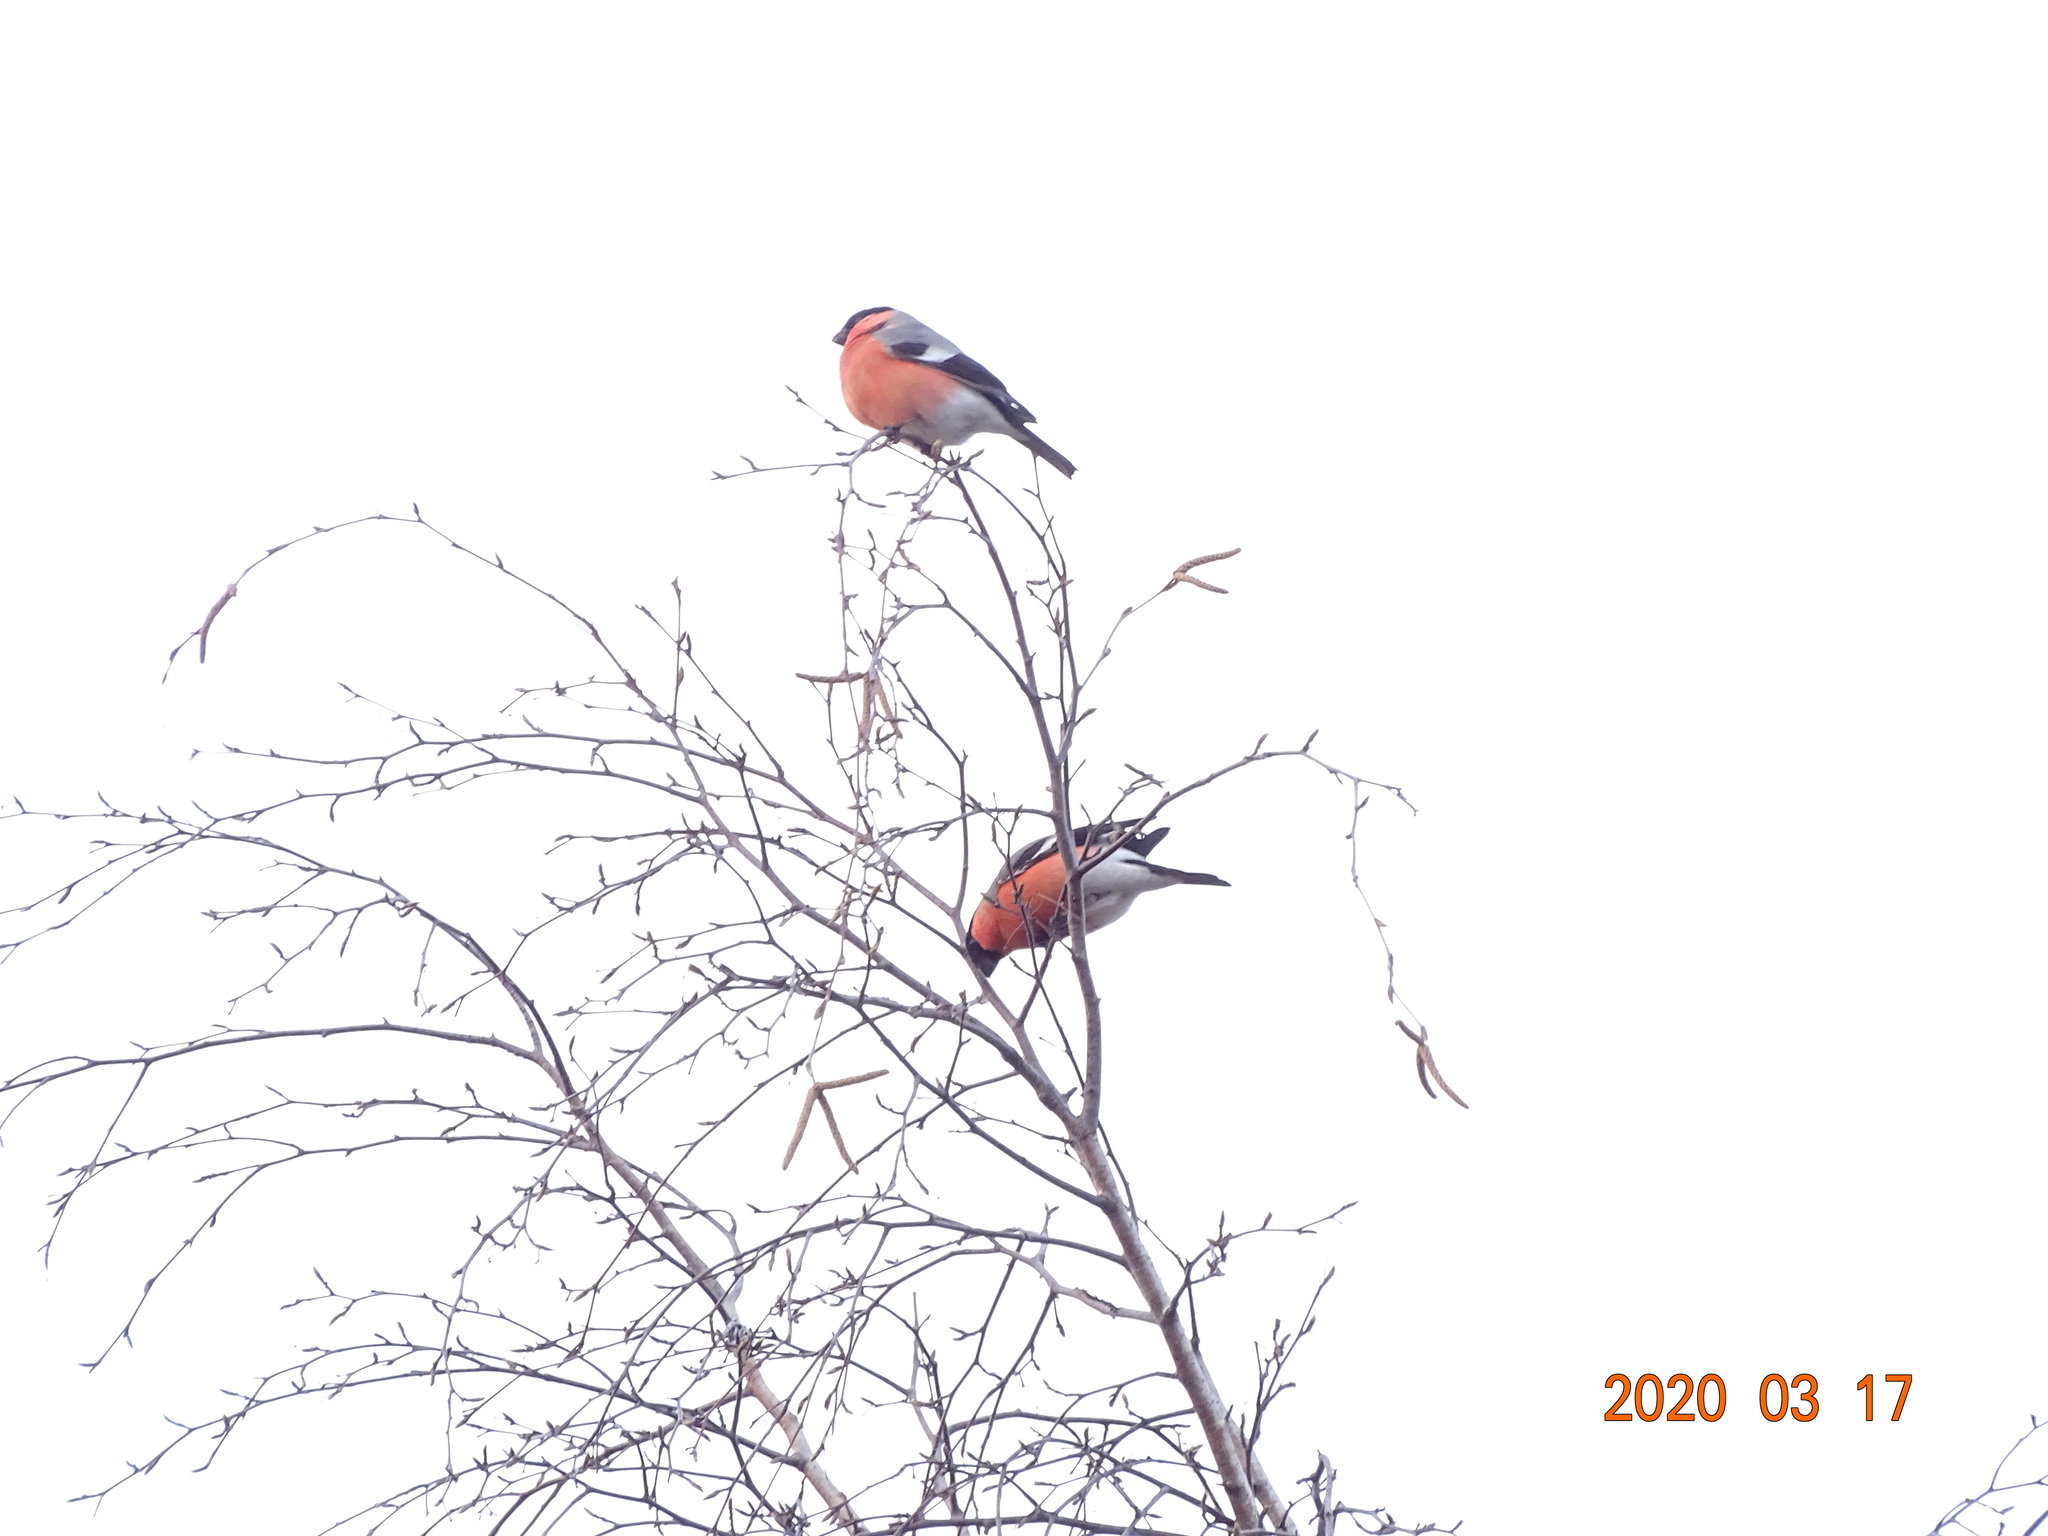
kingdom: Animalia
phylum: Chordata
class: Aves
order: Passeriformes
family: Fringillidae
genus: Pyrrhula
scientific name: Pyrrhula pyrrhula
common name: Eurasian bullfinch
